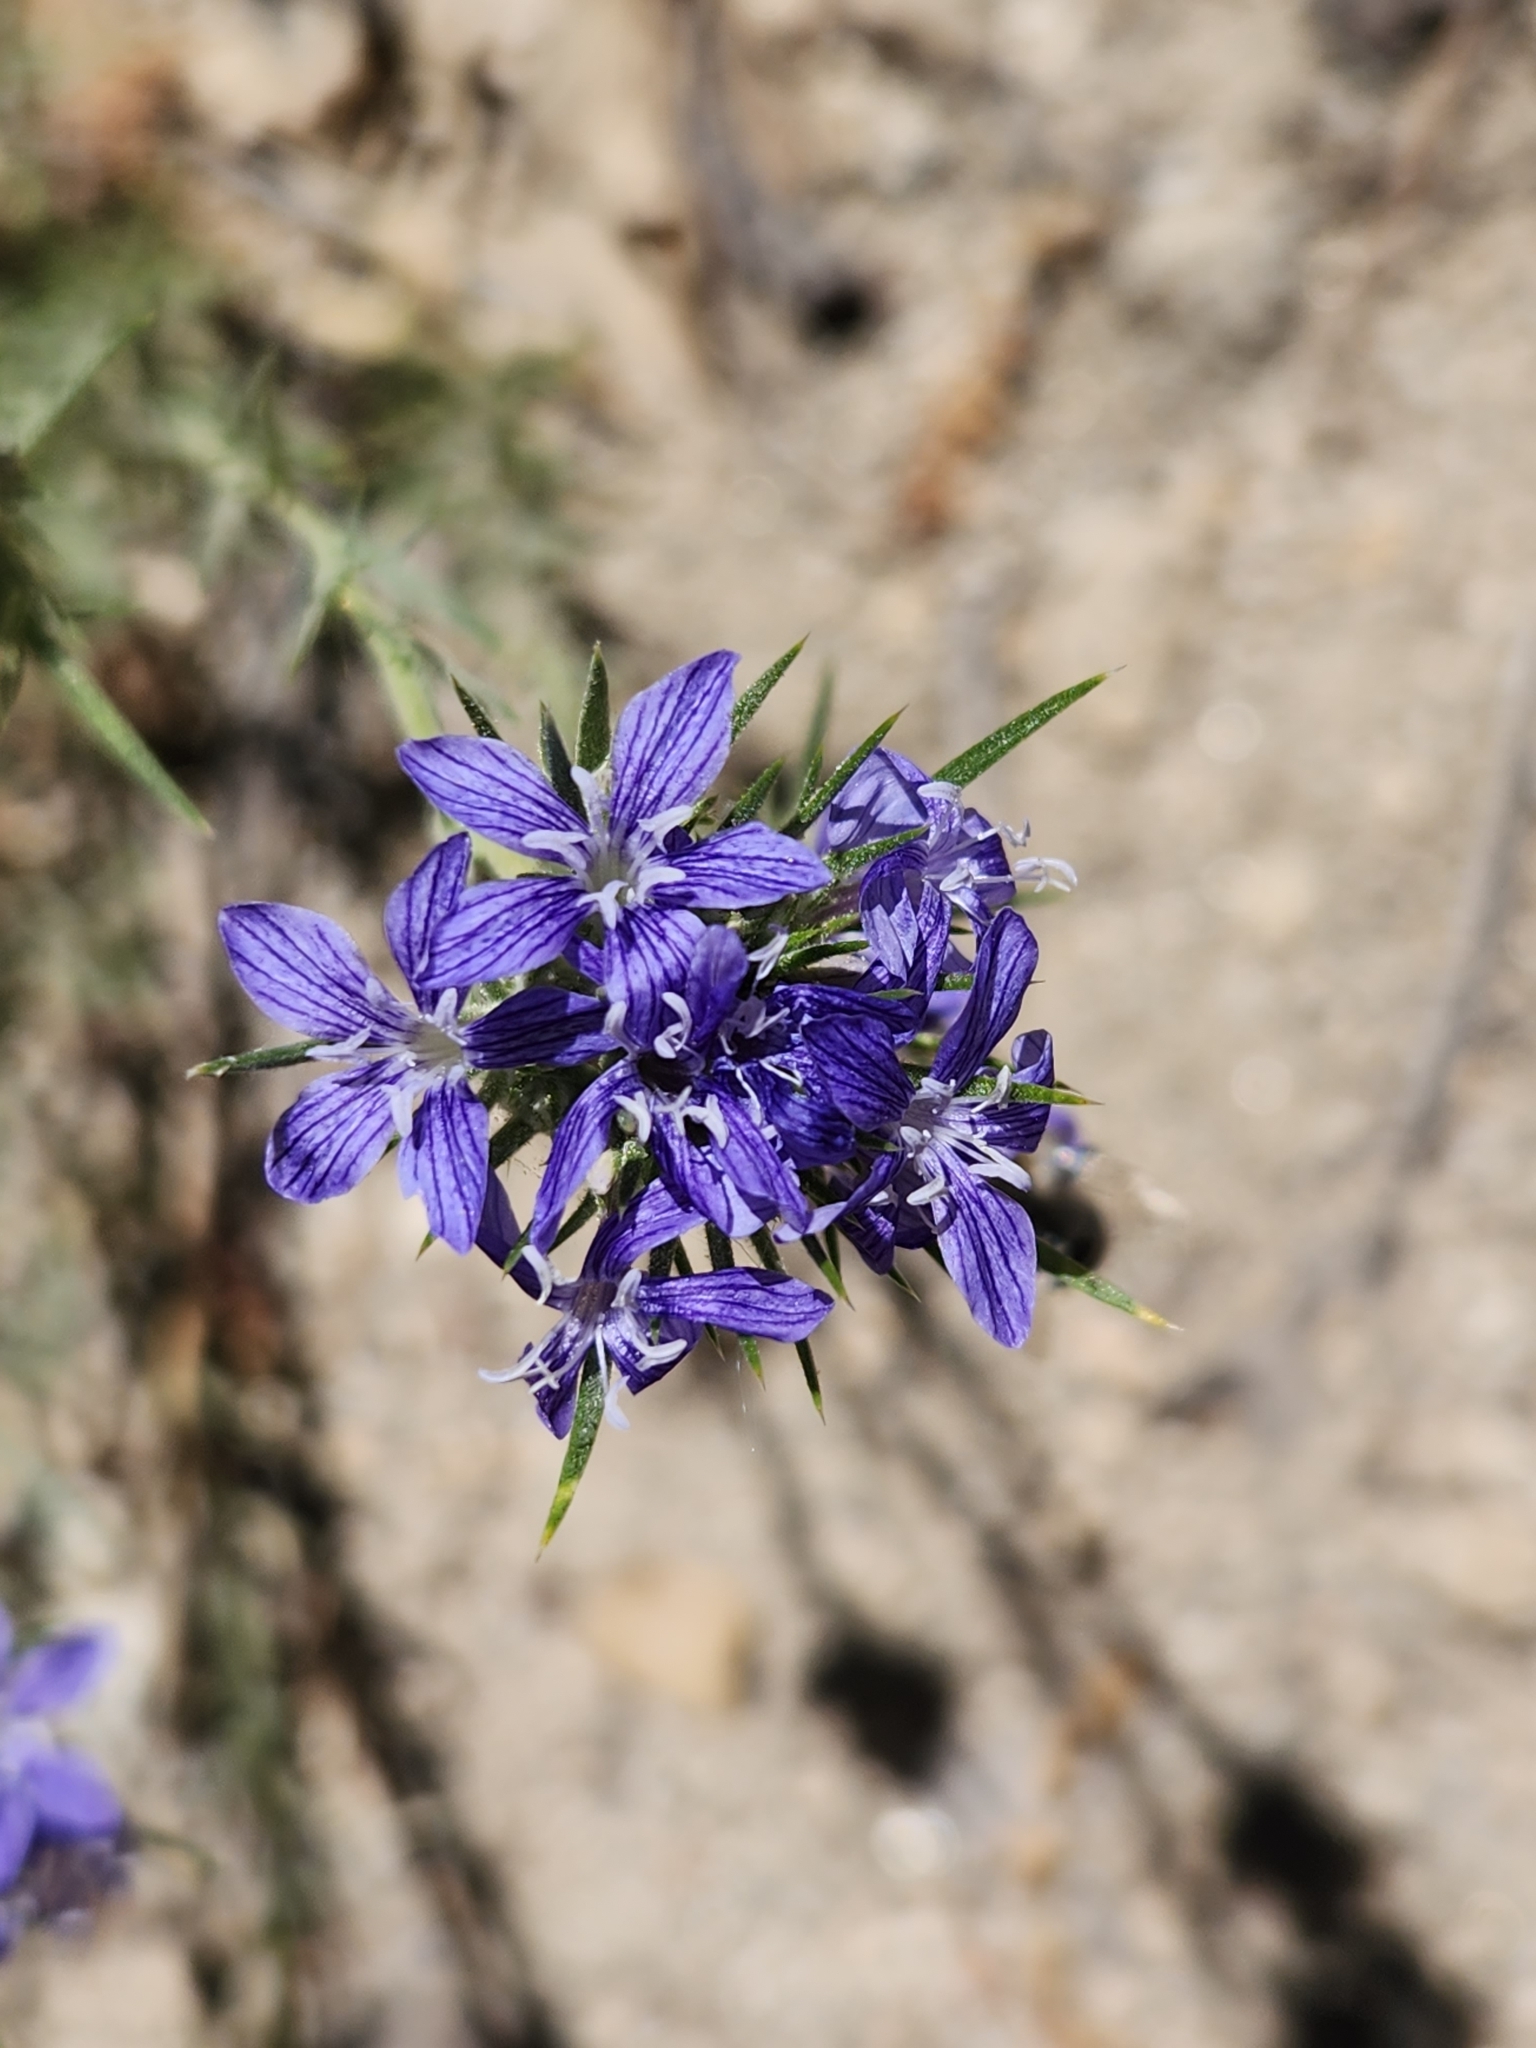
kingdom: Plantae
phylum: Tracheophyta
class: Magnoliopsida
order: Ericales
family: Polemoniaceae
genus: Eriastrum
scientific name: Eriastrum densifolium
